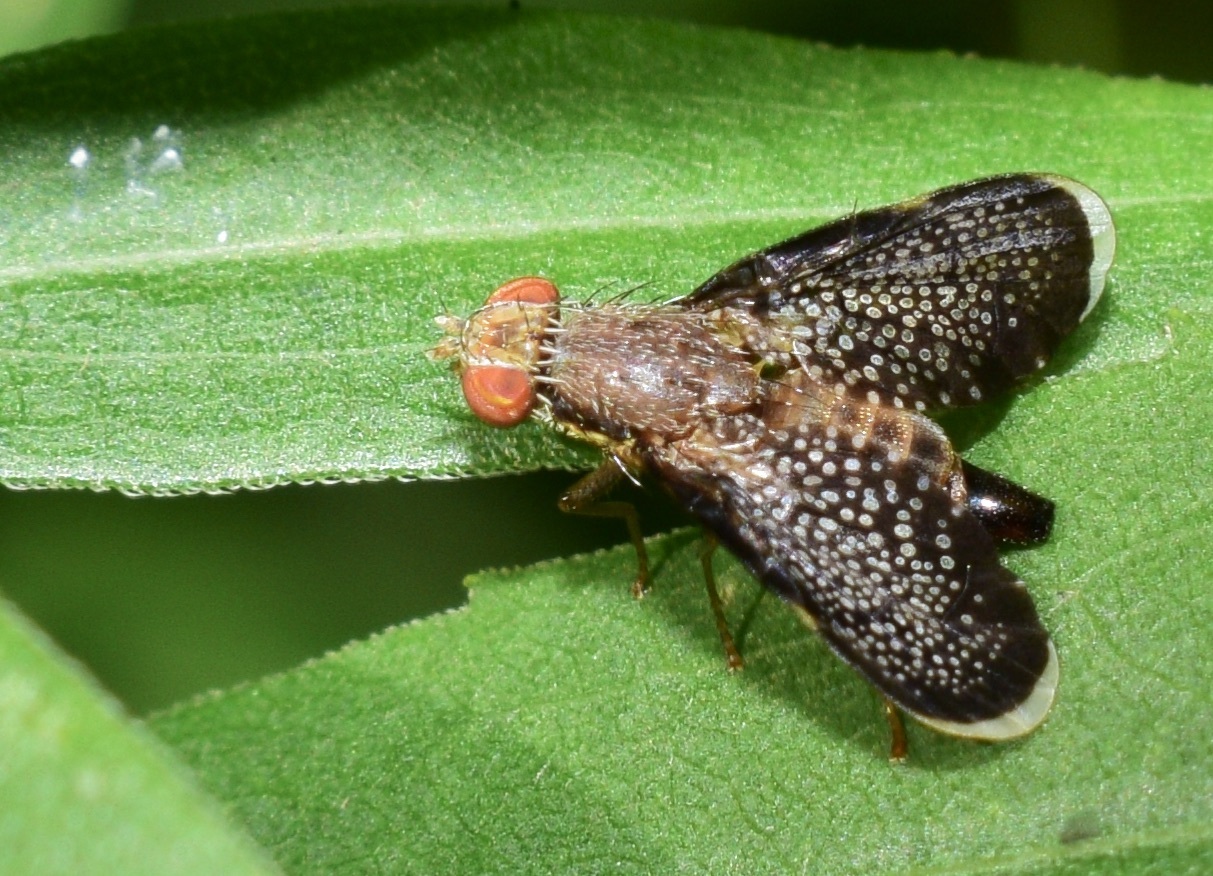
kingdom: Animalia
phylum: Arthropoda
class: Insecta
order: Diptera
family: Tephritidae
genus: Eutreta
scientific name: Eutreta novaeboracensis
